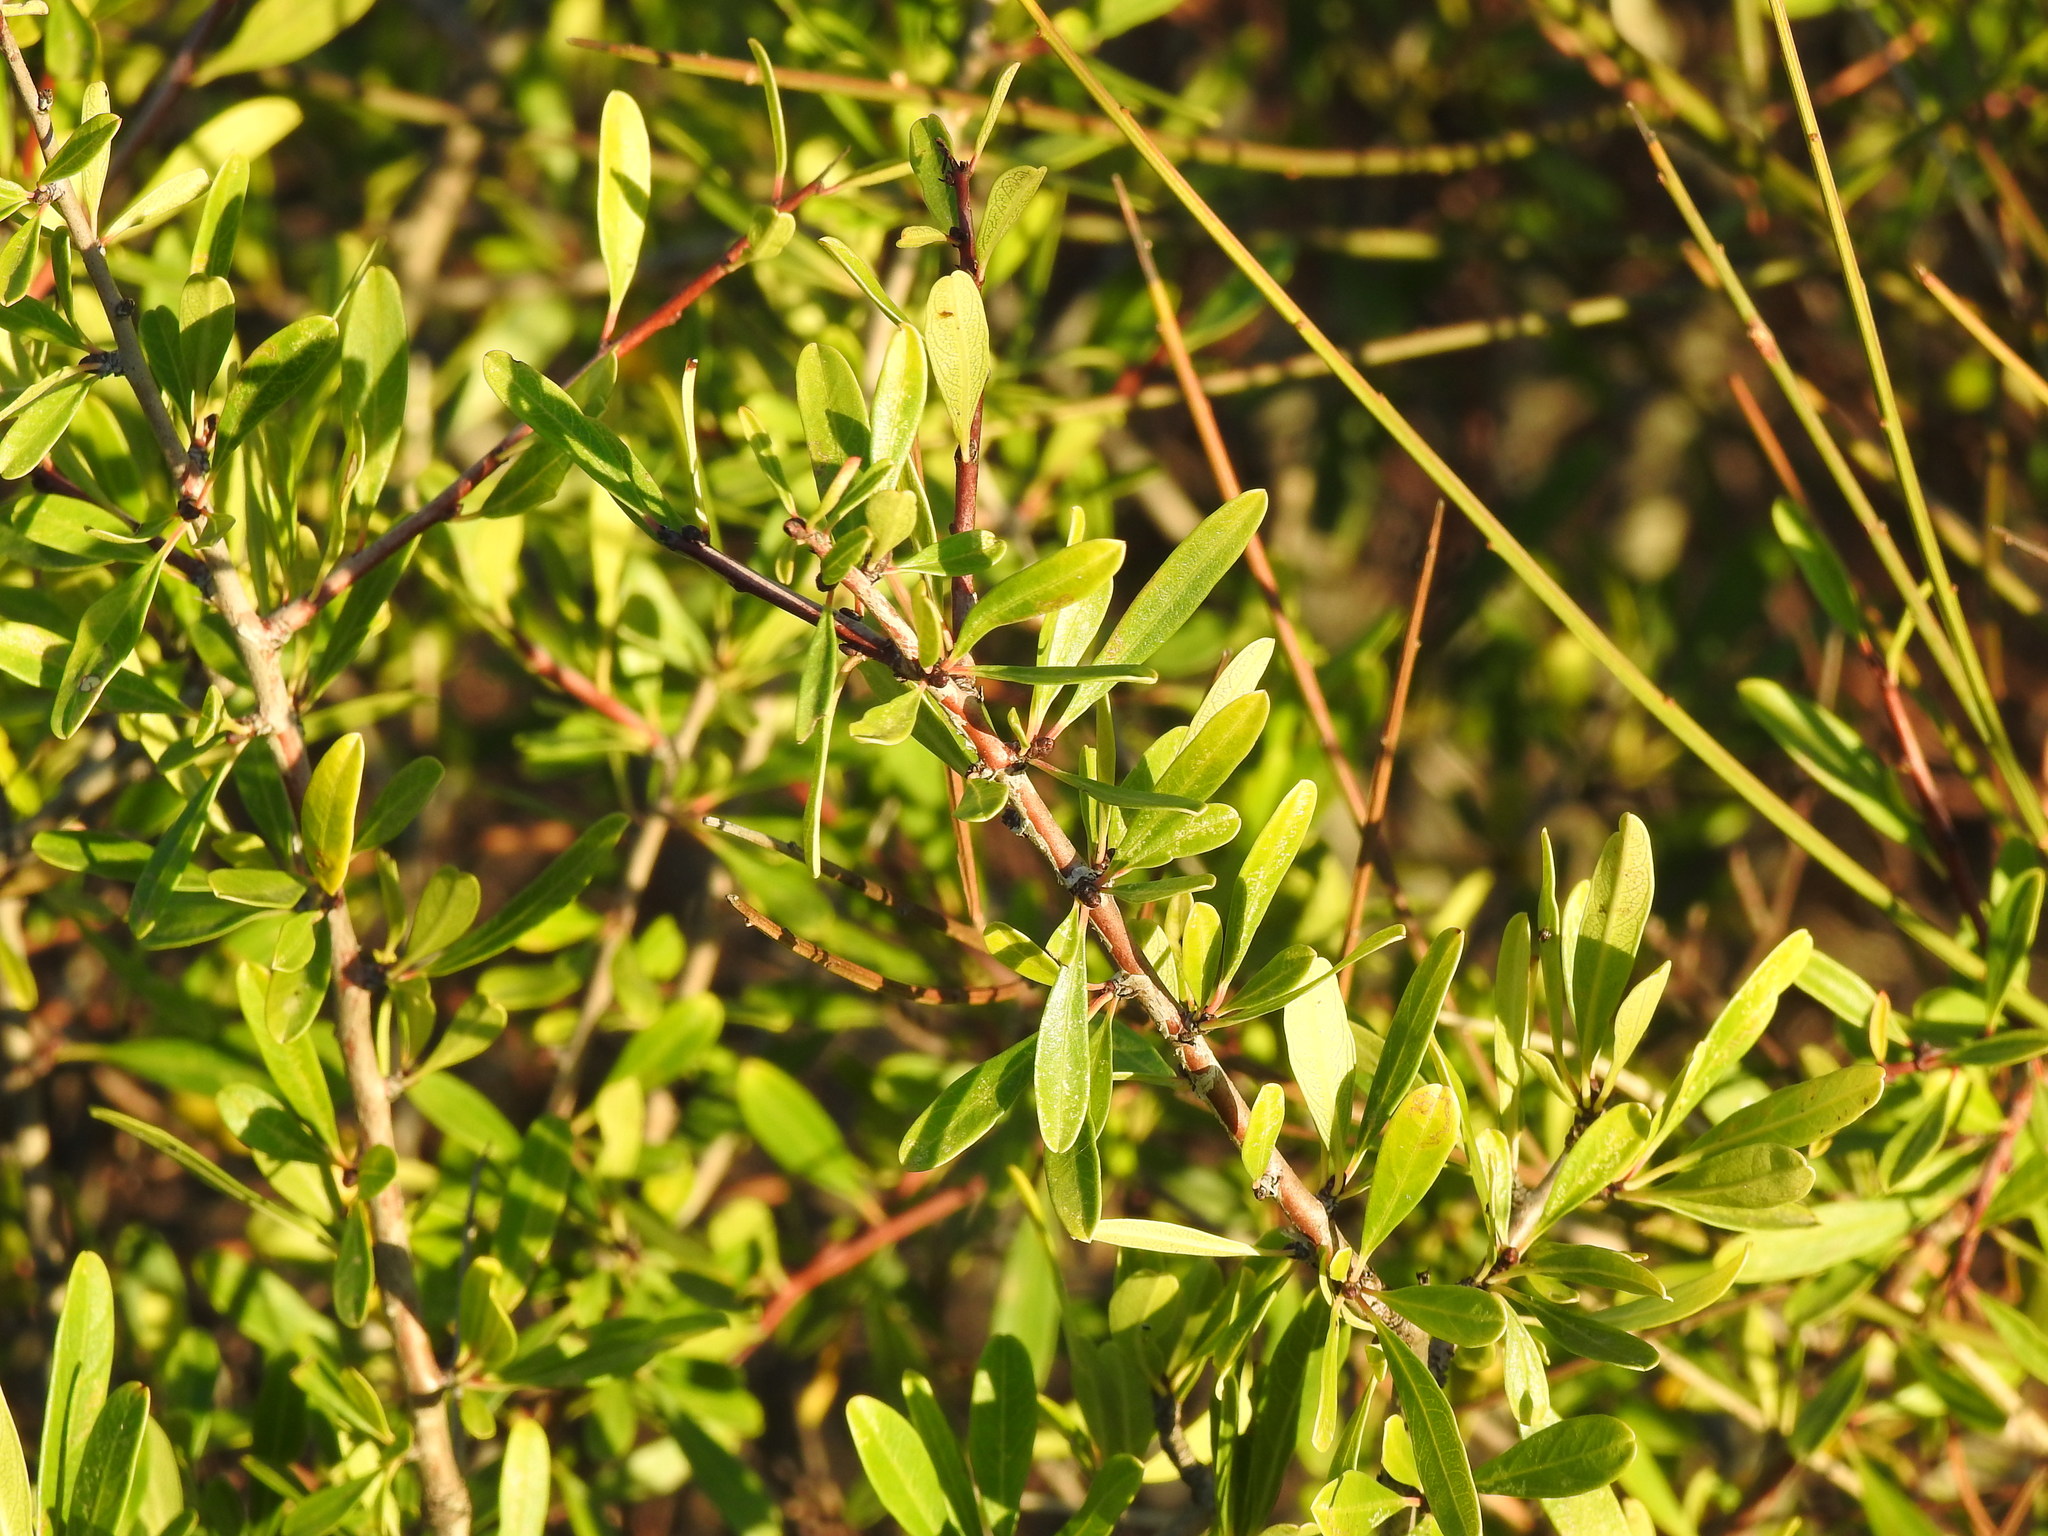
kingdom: Plantae
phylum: Tracheophyta
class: Magnoliopsida
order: Rosales
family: Rhamnaceae
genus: Rhamnus
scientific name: Rhamnus oleoides
